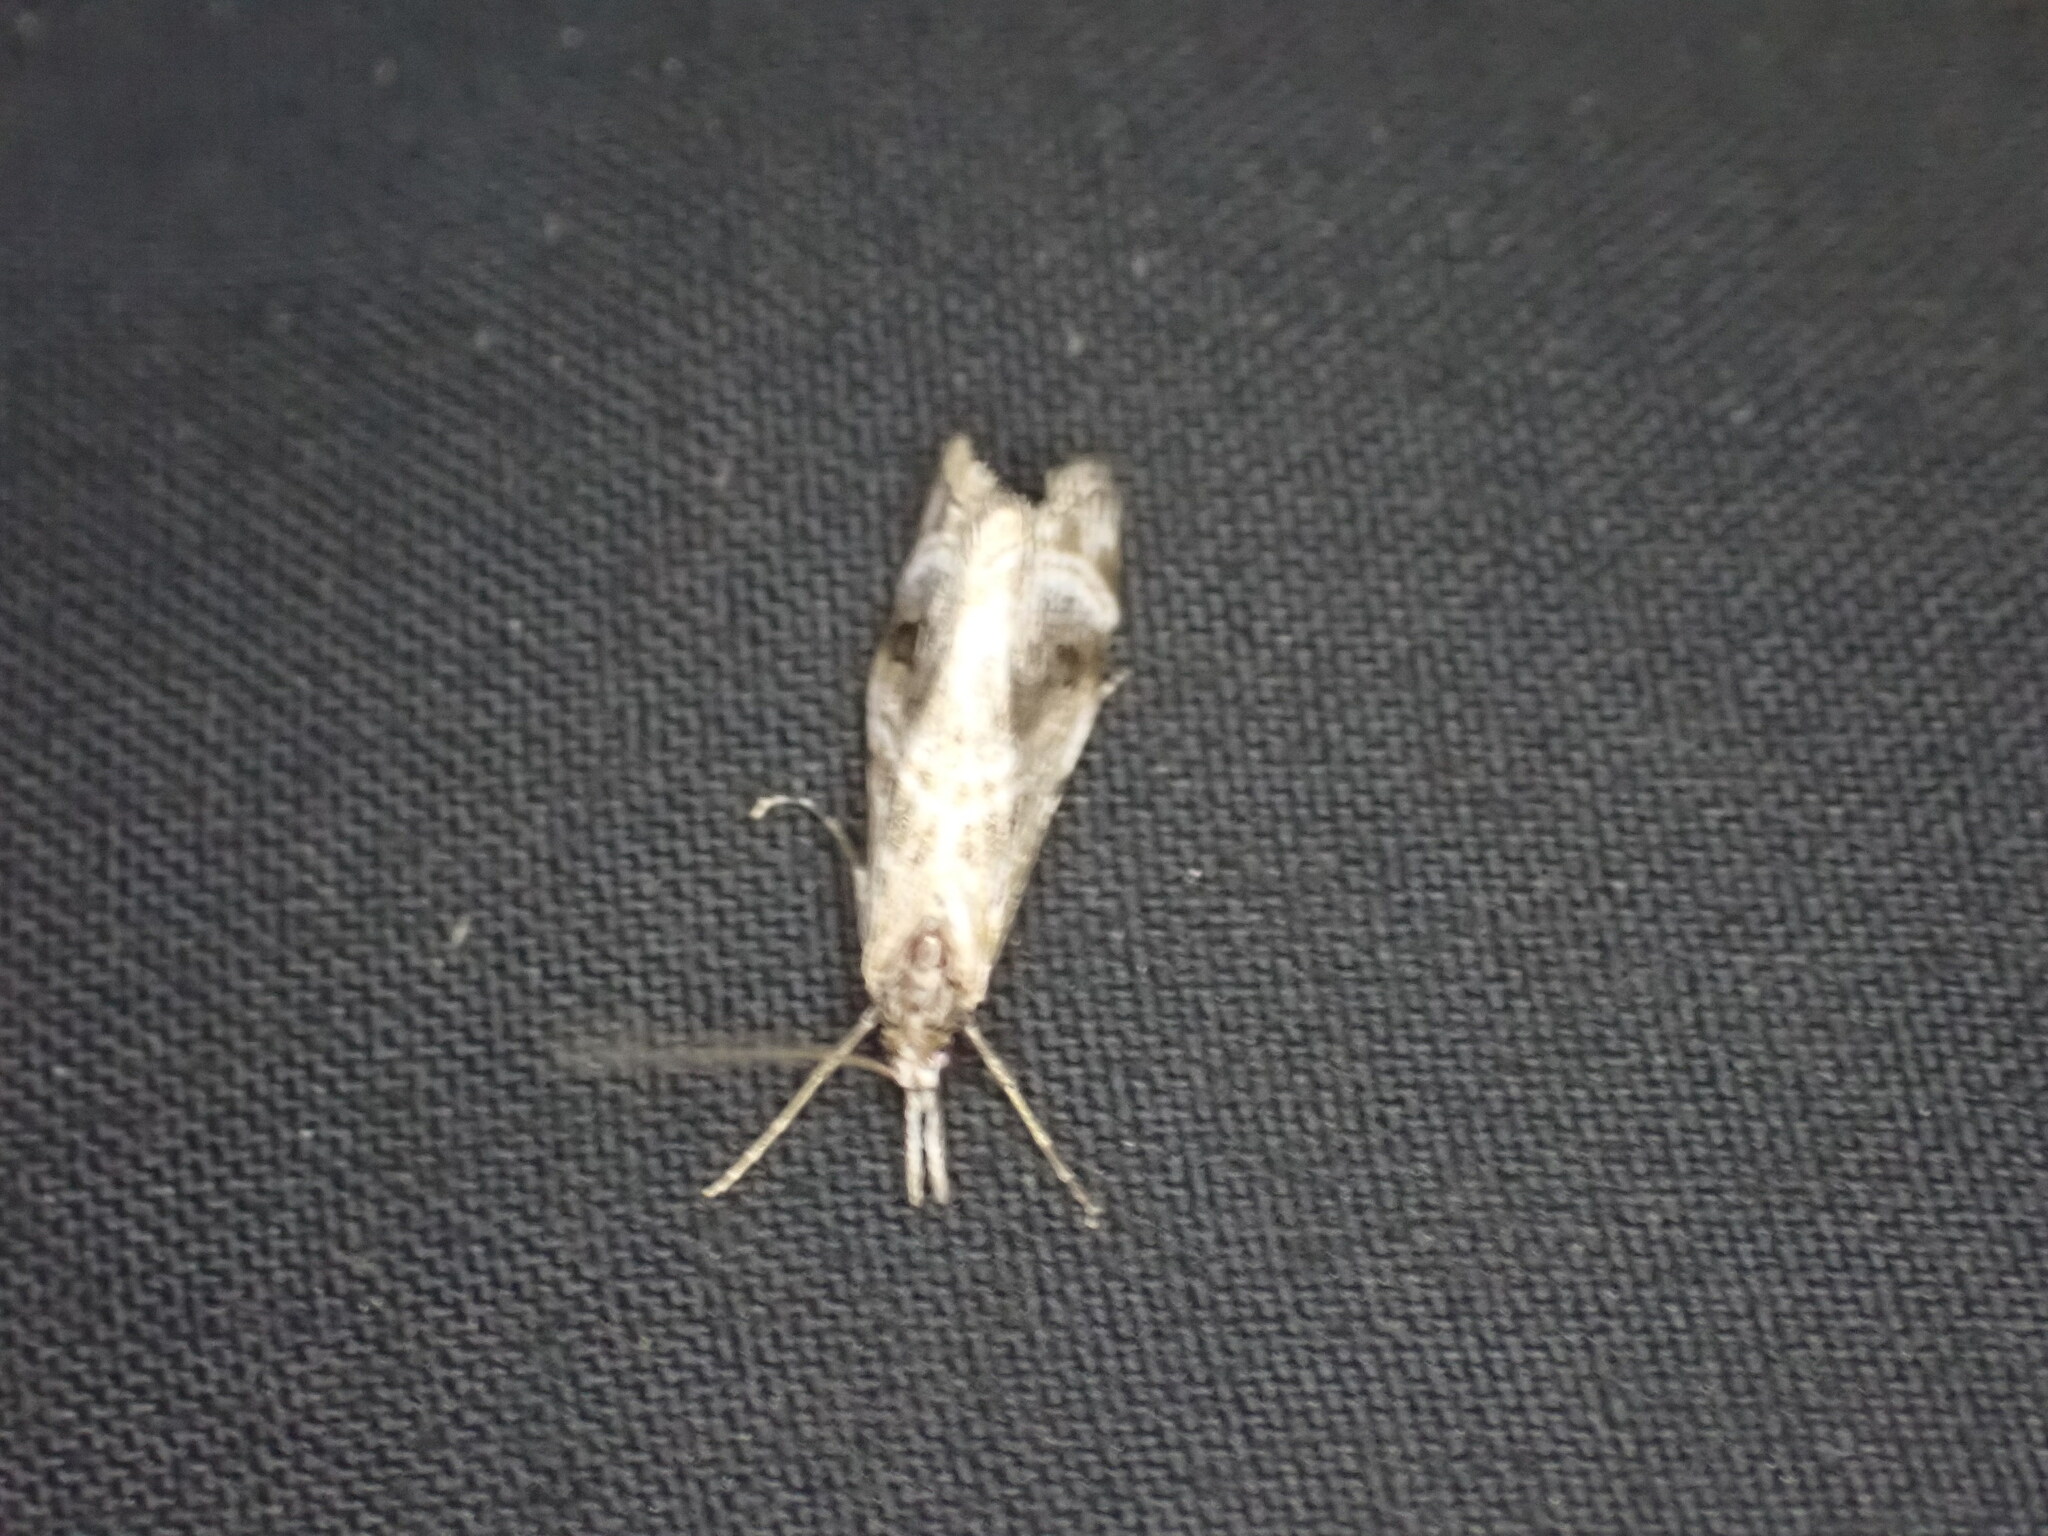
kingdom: Animalia
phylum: Arthropoda
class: Insecta
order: Lepidoptera
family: Crambidae
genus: Gadira
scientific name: Gadira acerella
